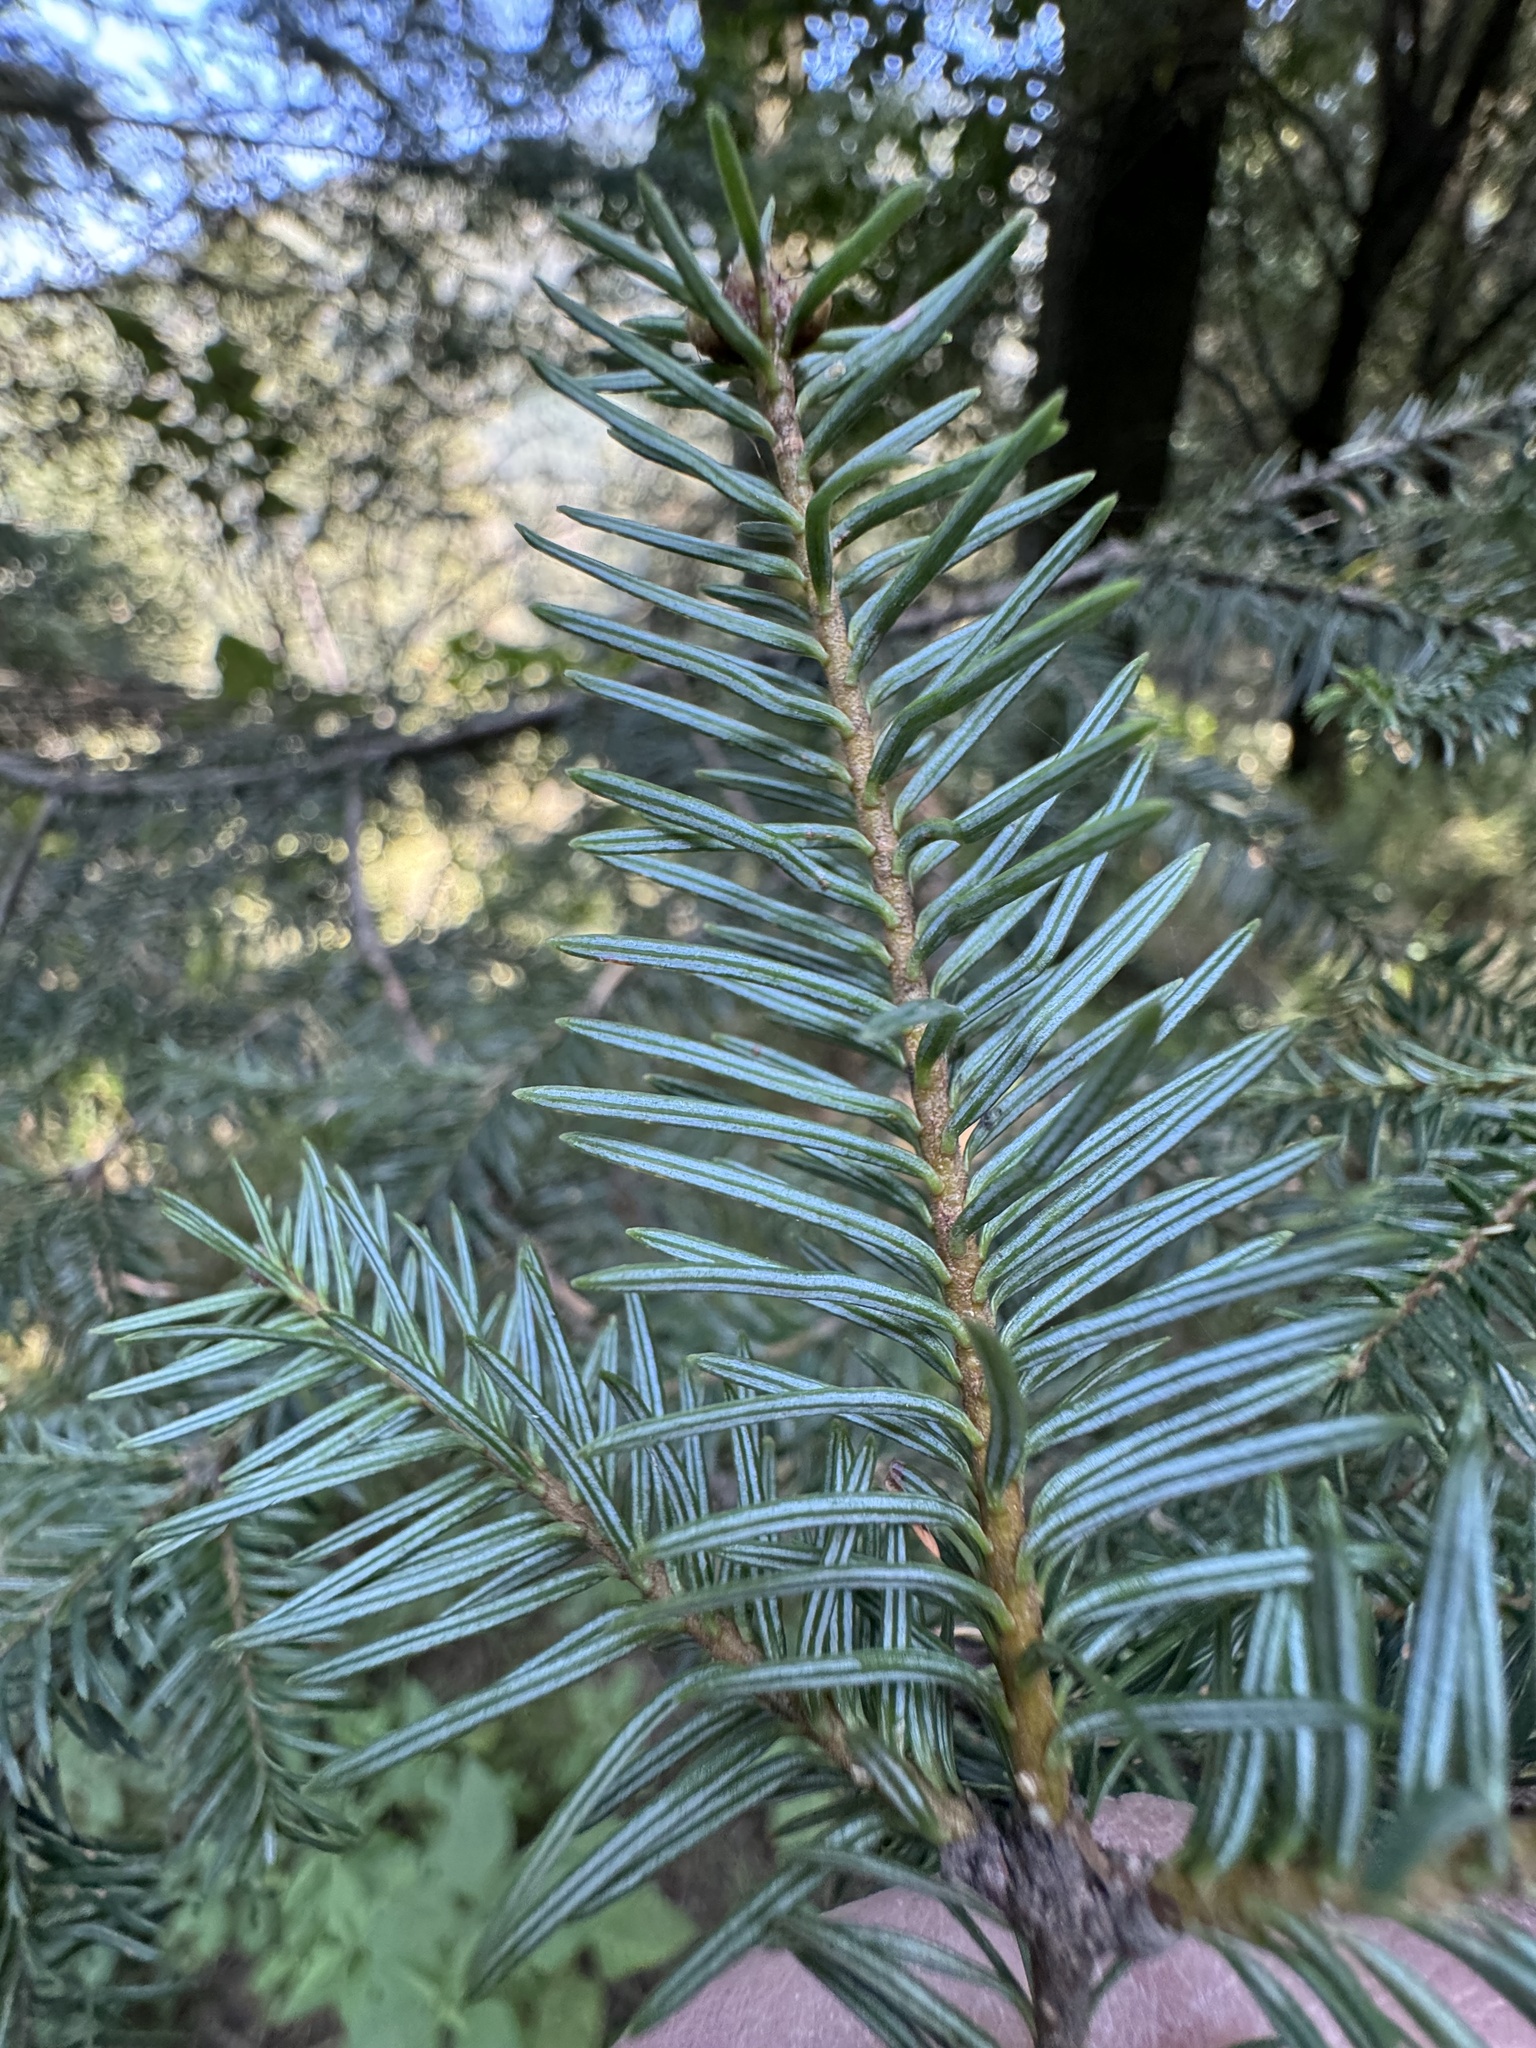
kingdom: Plantae
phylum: Tracheophyta
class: Pinopsida
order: Pinales
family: Pinaceae
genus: Abies
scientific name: Abies religiosa
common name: Sacred fir
